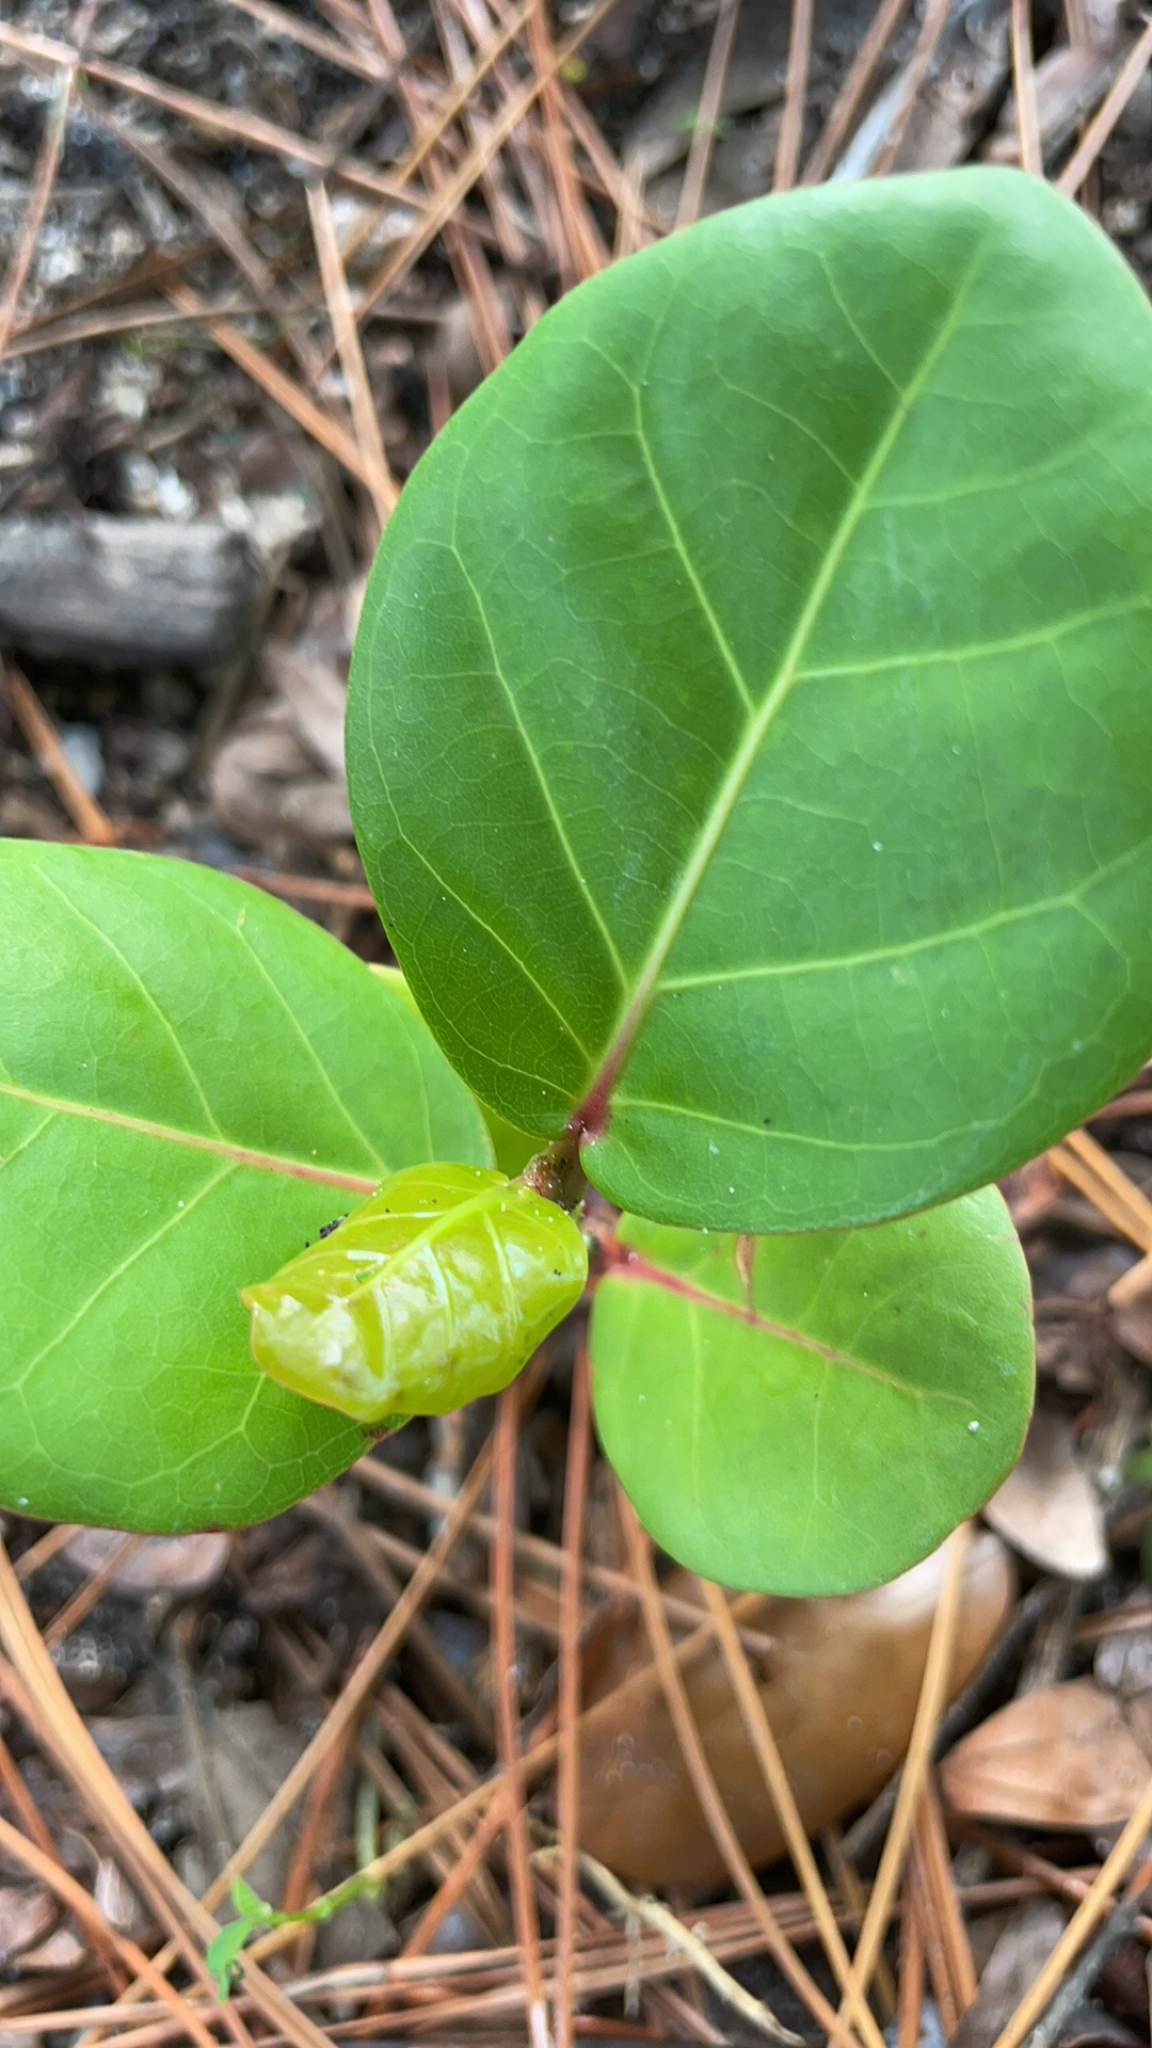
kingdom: Plantae
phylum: Tracheophyta
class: Magnoliopsida
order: Caryophyllales
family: Polygonaceae
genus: Coccoloba
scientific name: Coccoloba uvifera
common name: Seagrape
